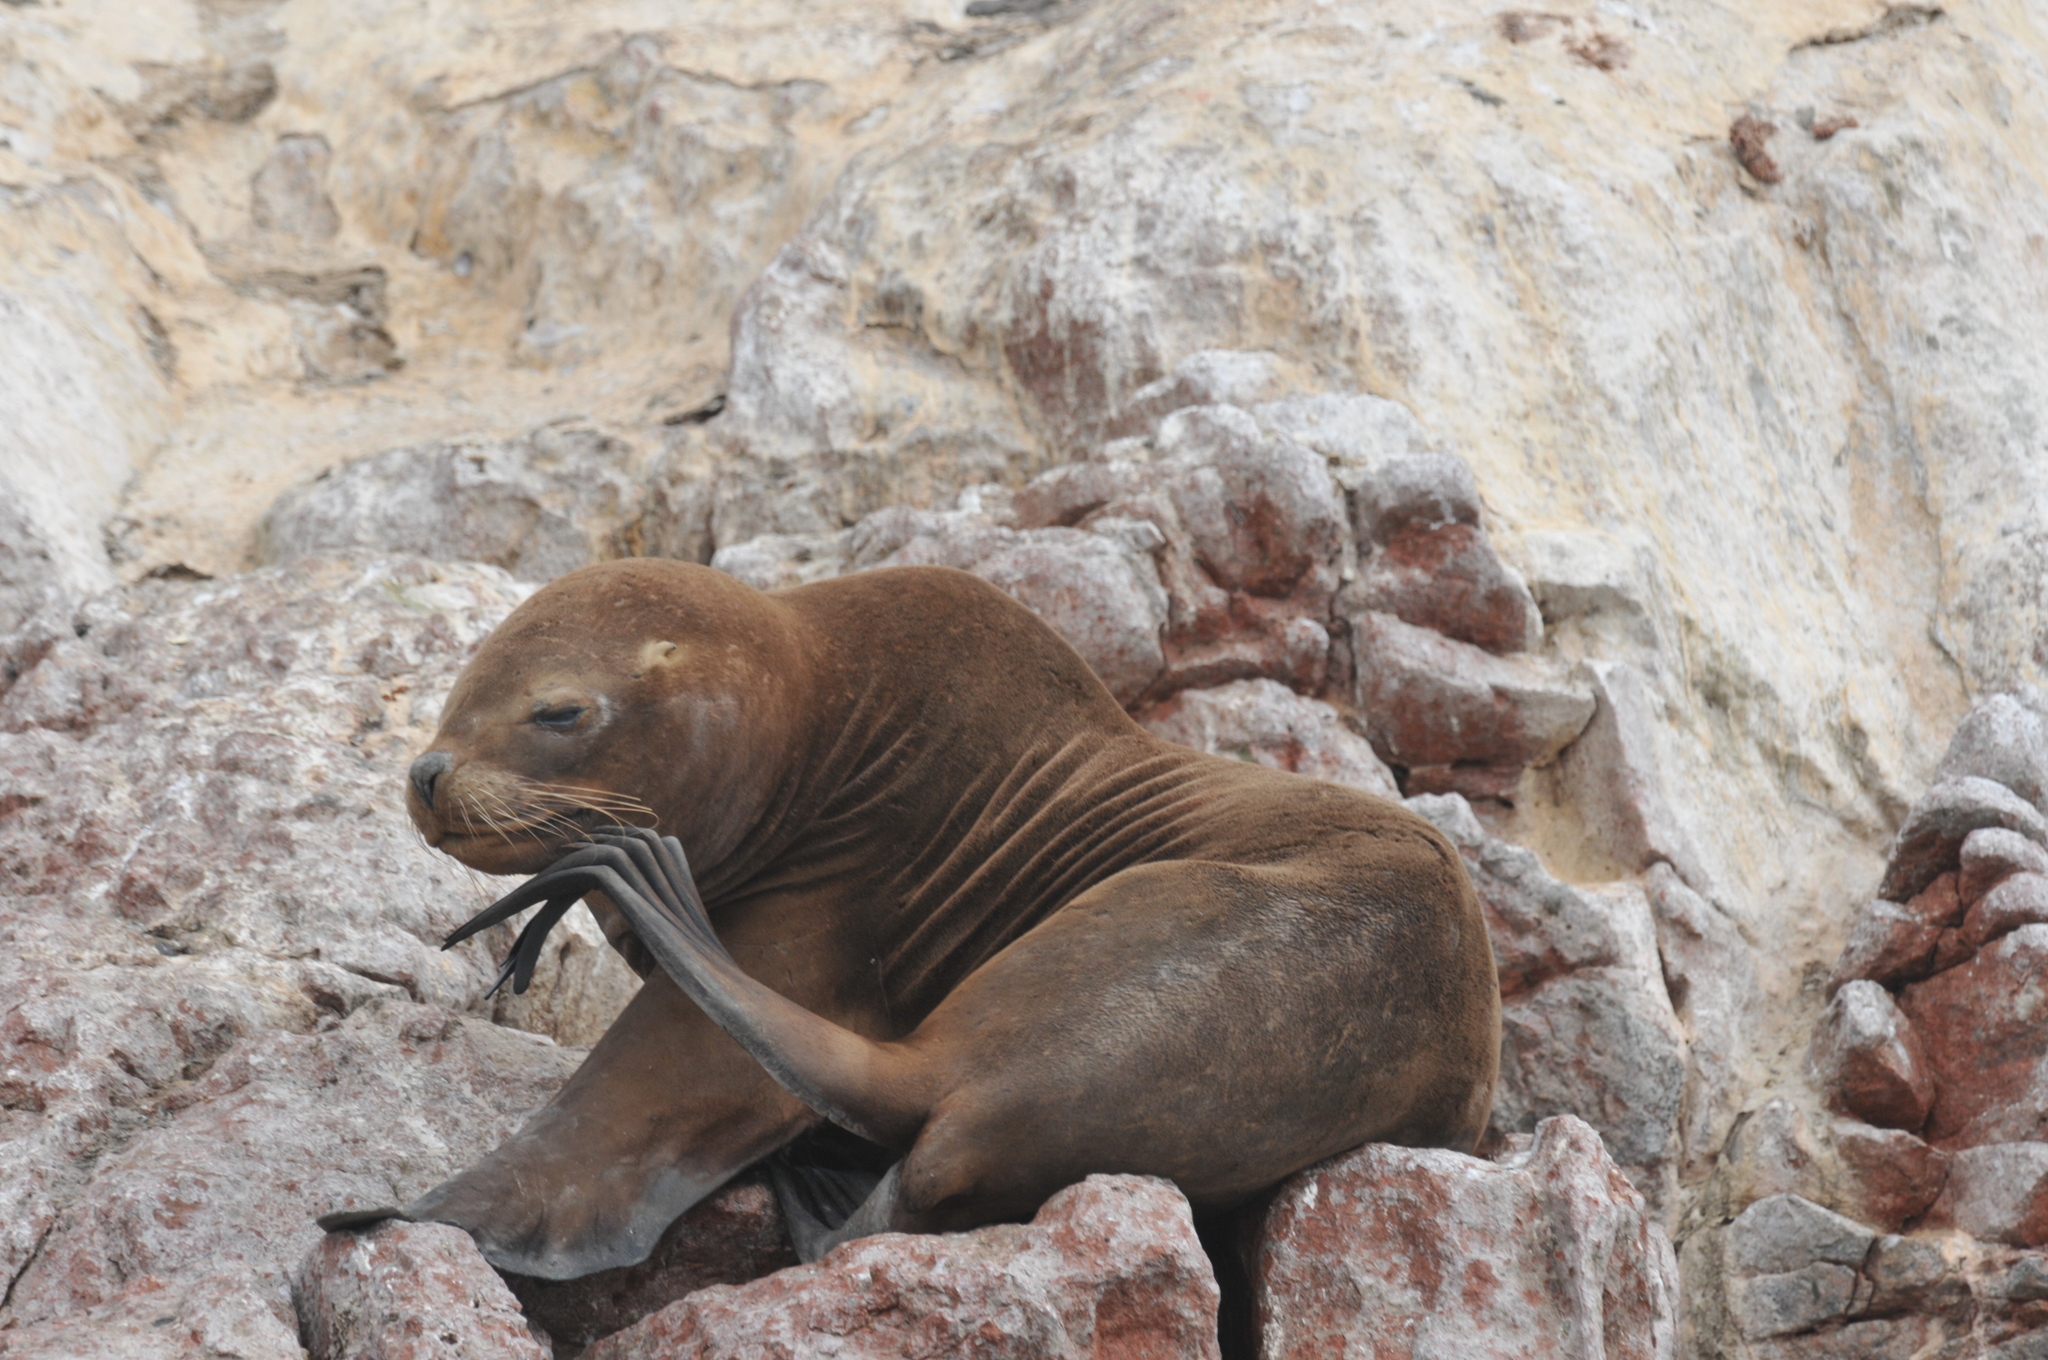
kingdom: Animalia
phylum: Chordata
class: Mammalia
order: Carnivora
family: Otariidae
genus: Otaria
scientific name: Otaria byronia
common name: South american sea lion
